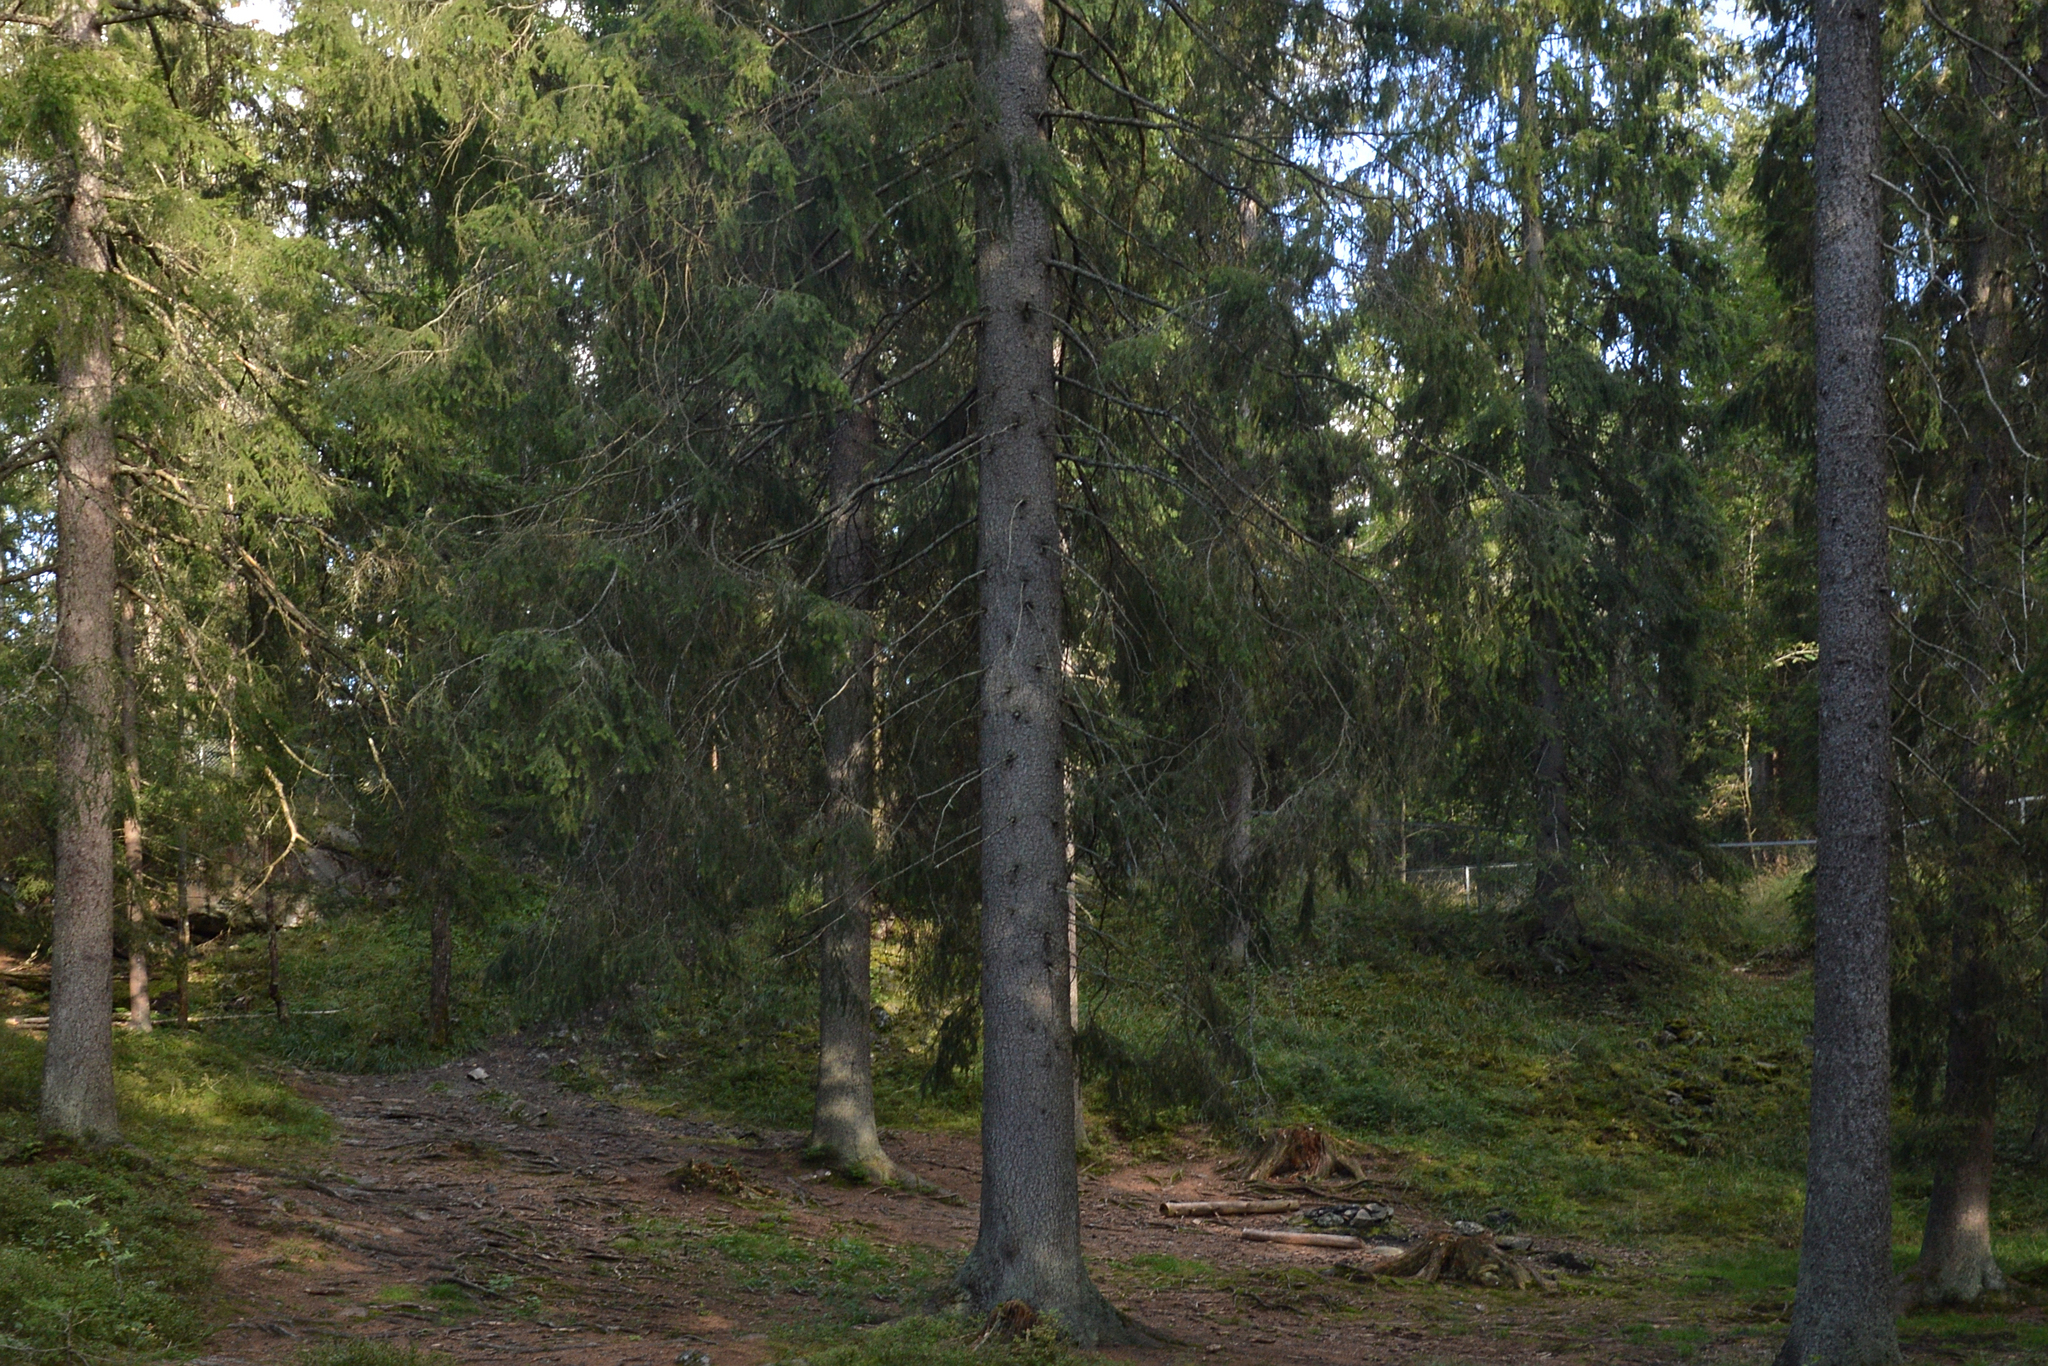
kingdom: Fungi
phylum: Basidiomycota
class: Agaricomycetes
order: Boletales
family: Boletaceae
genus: Tylopilus
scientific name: Tylopilus felleus
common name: Bitter bolete
